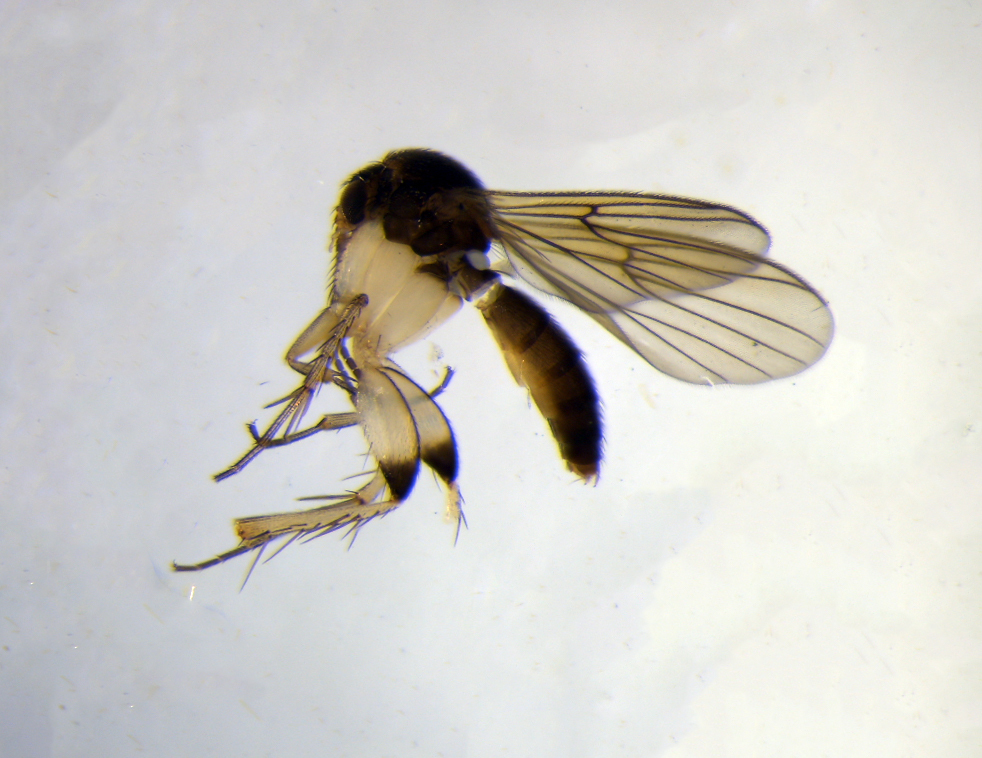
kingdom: Animalia
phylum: Arthropoda
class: Insecta
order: Diptera
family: Mycetophilidae
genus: Platurocypta
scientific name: Platurocypta
